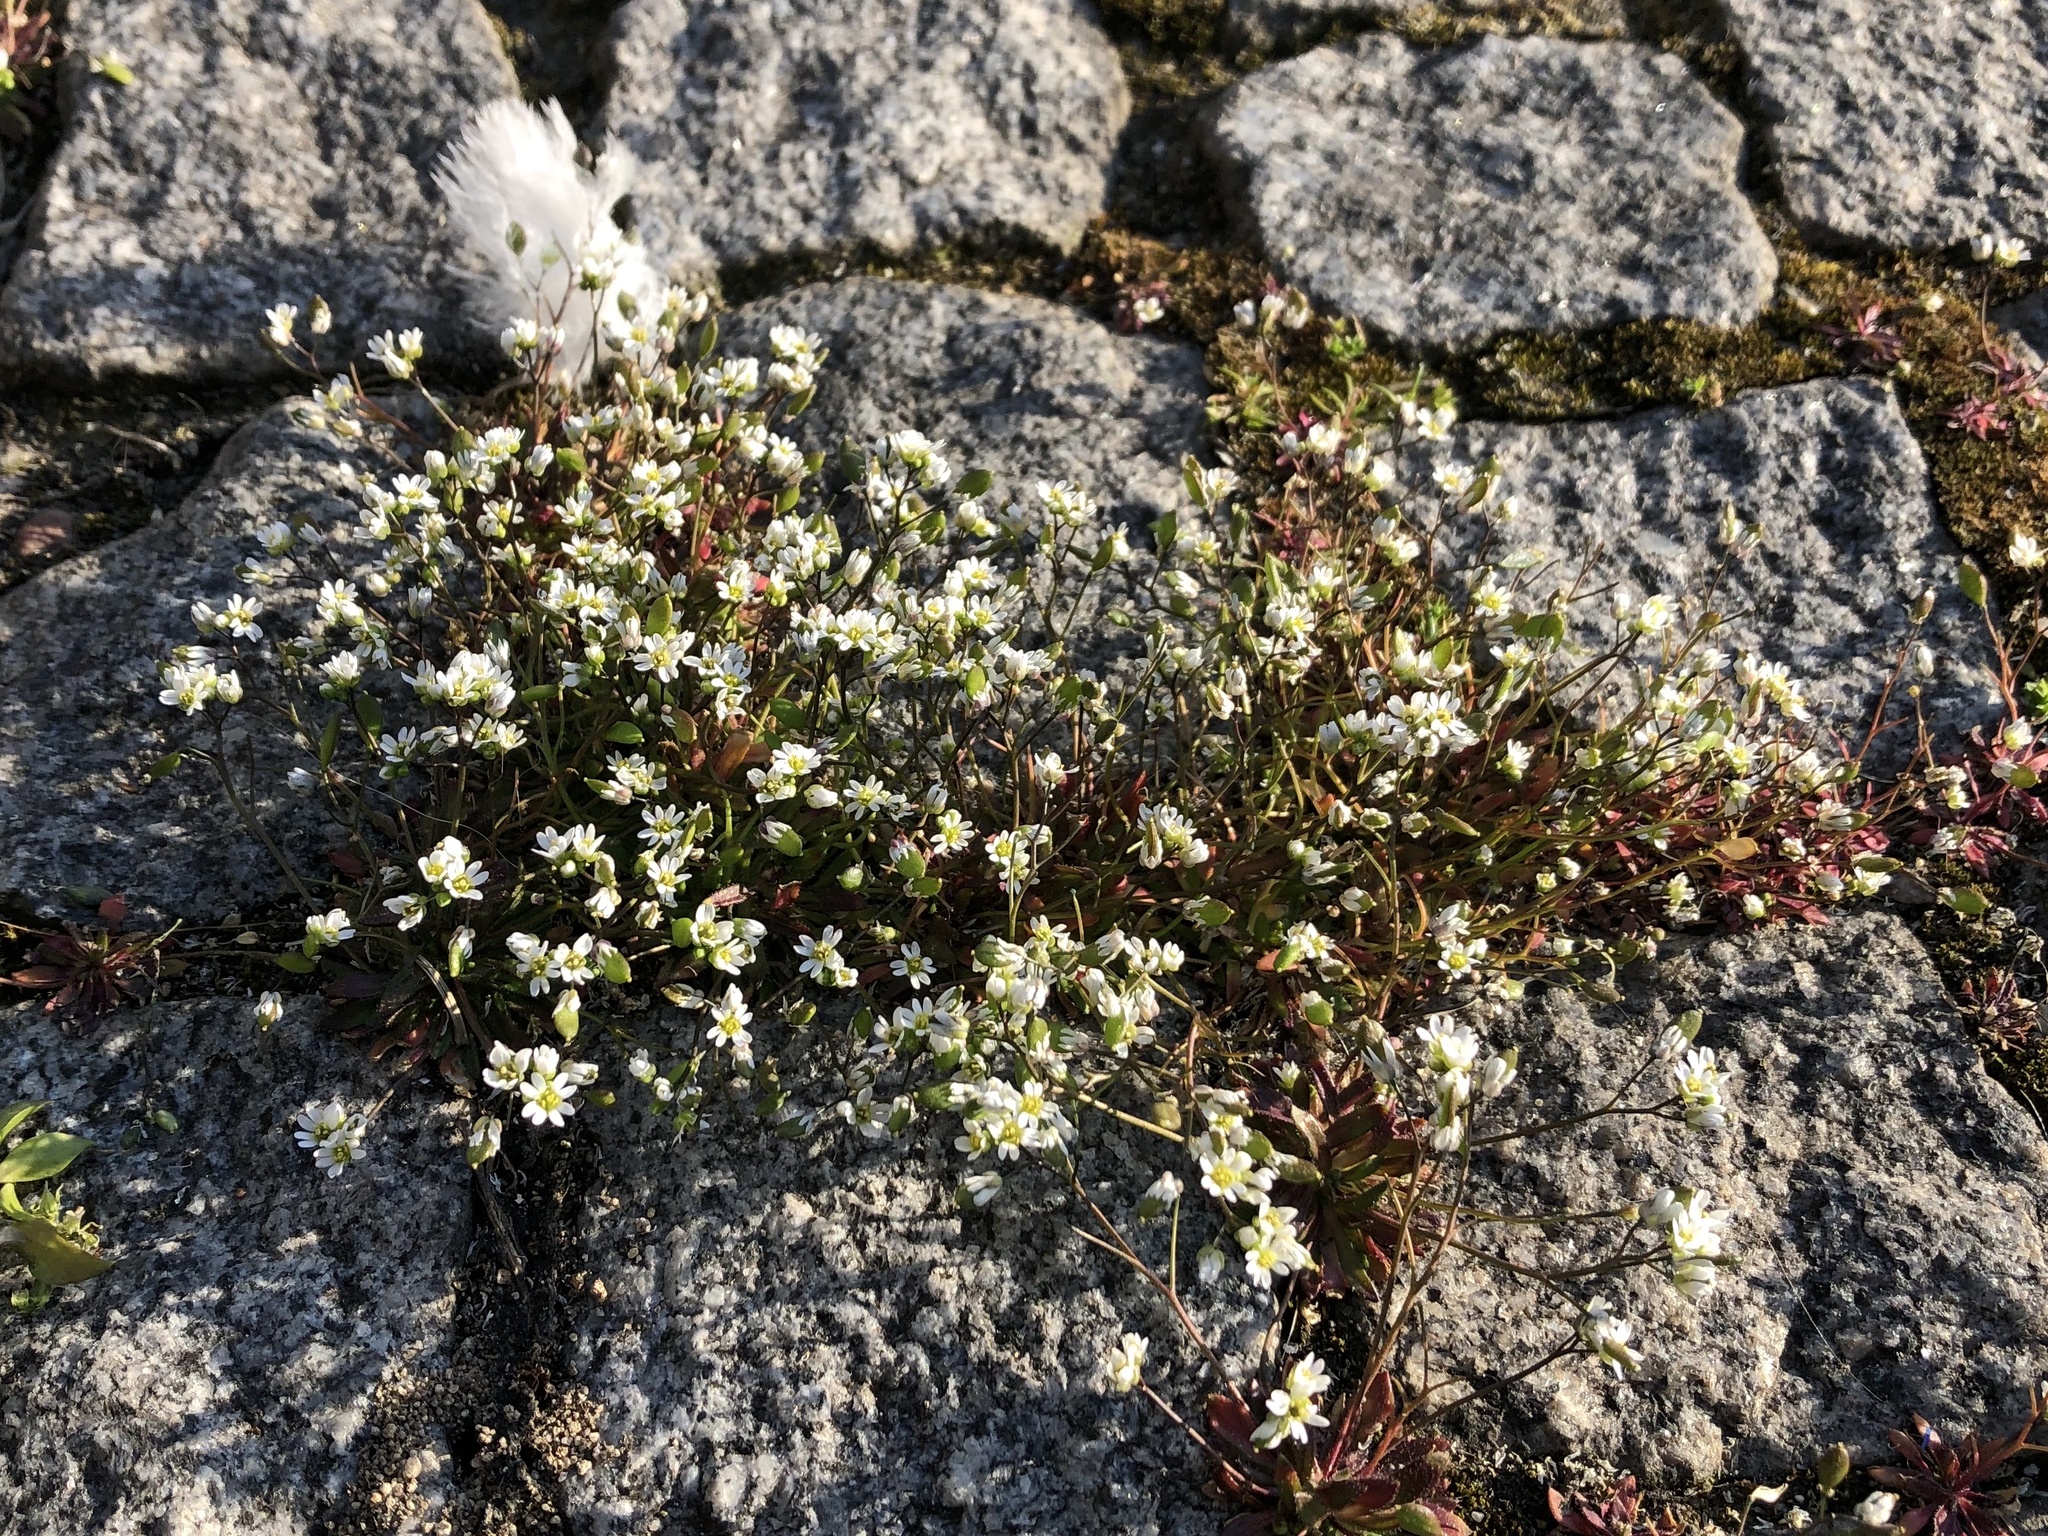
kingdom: Plantae
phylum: Tracheophyta
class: Magnoliopsida
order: Brassicales
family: Brassicaceae
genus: Draba
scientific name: Draba verna
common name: Spring draba
